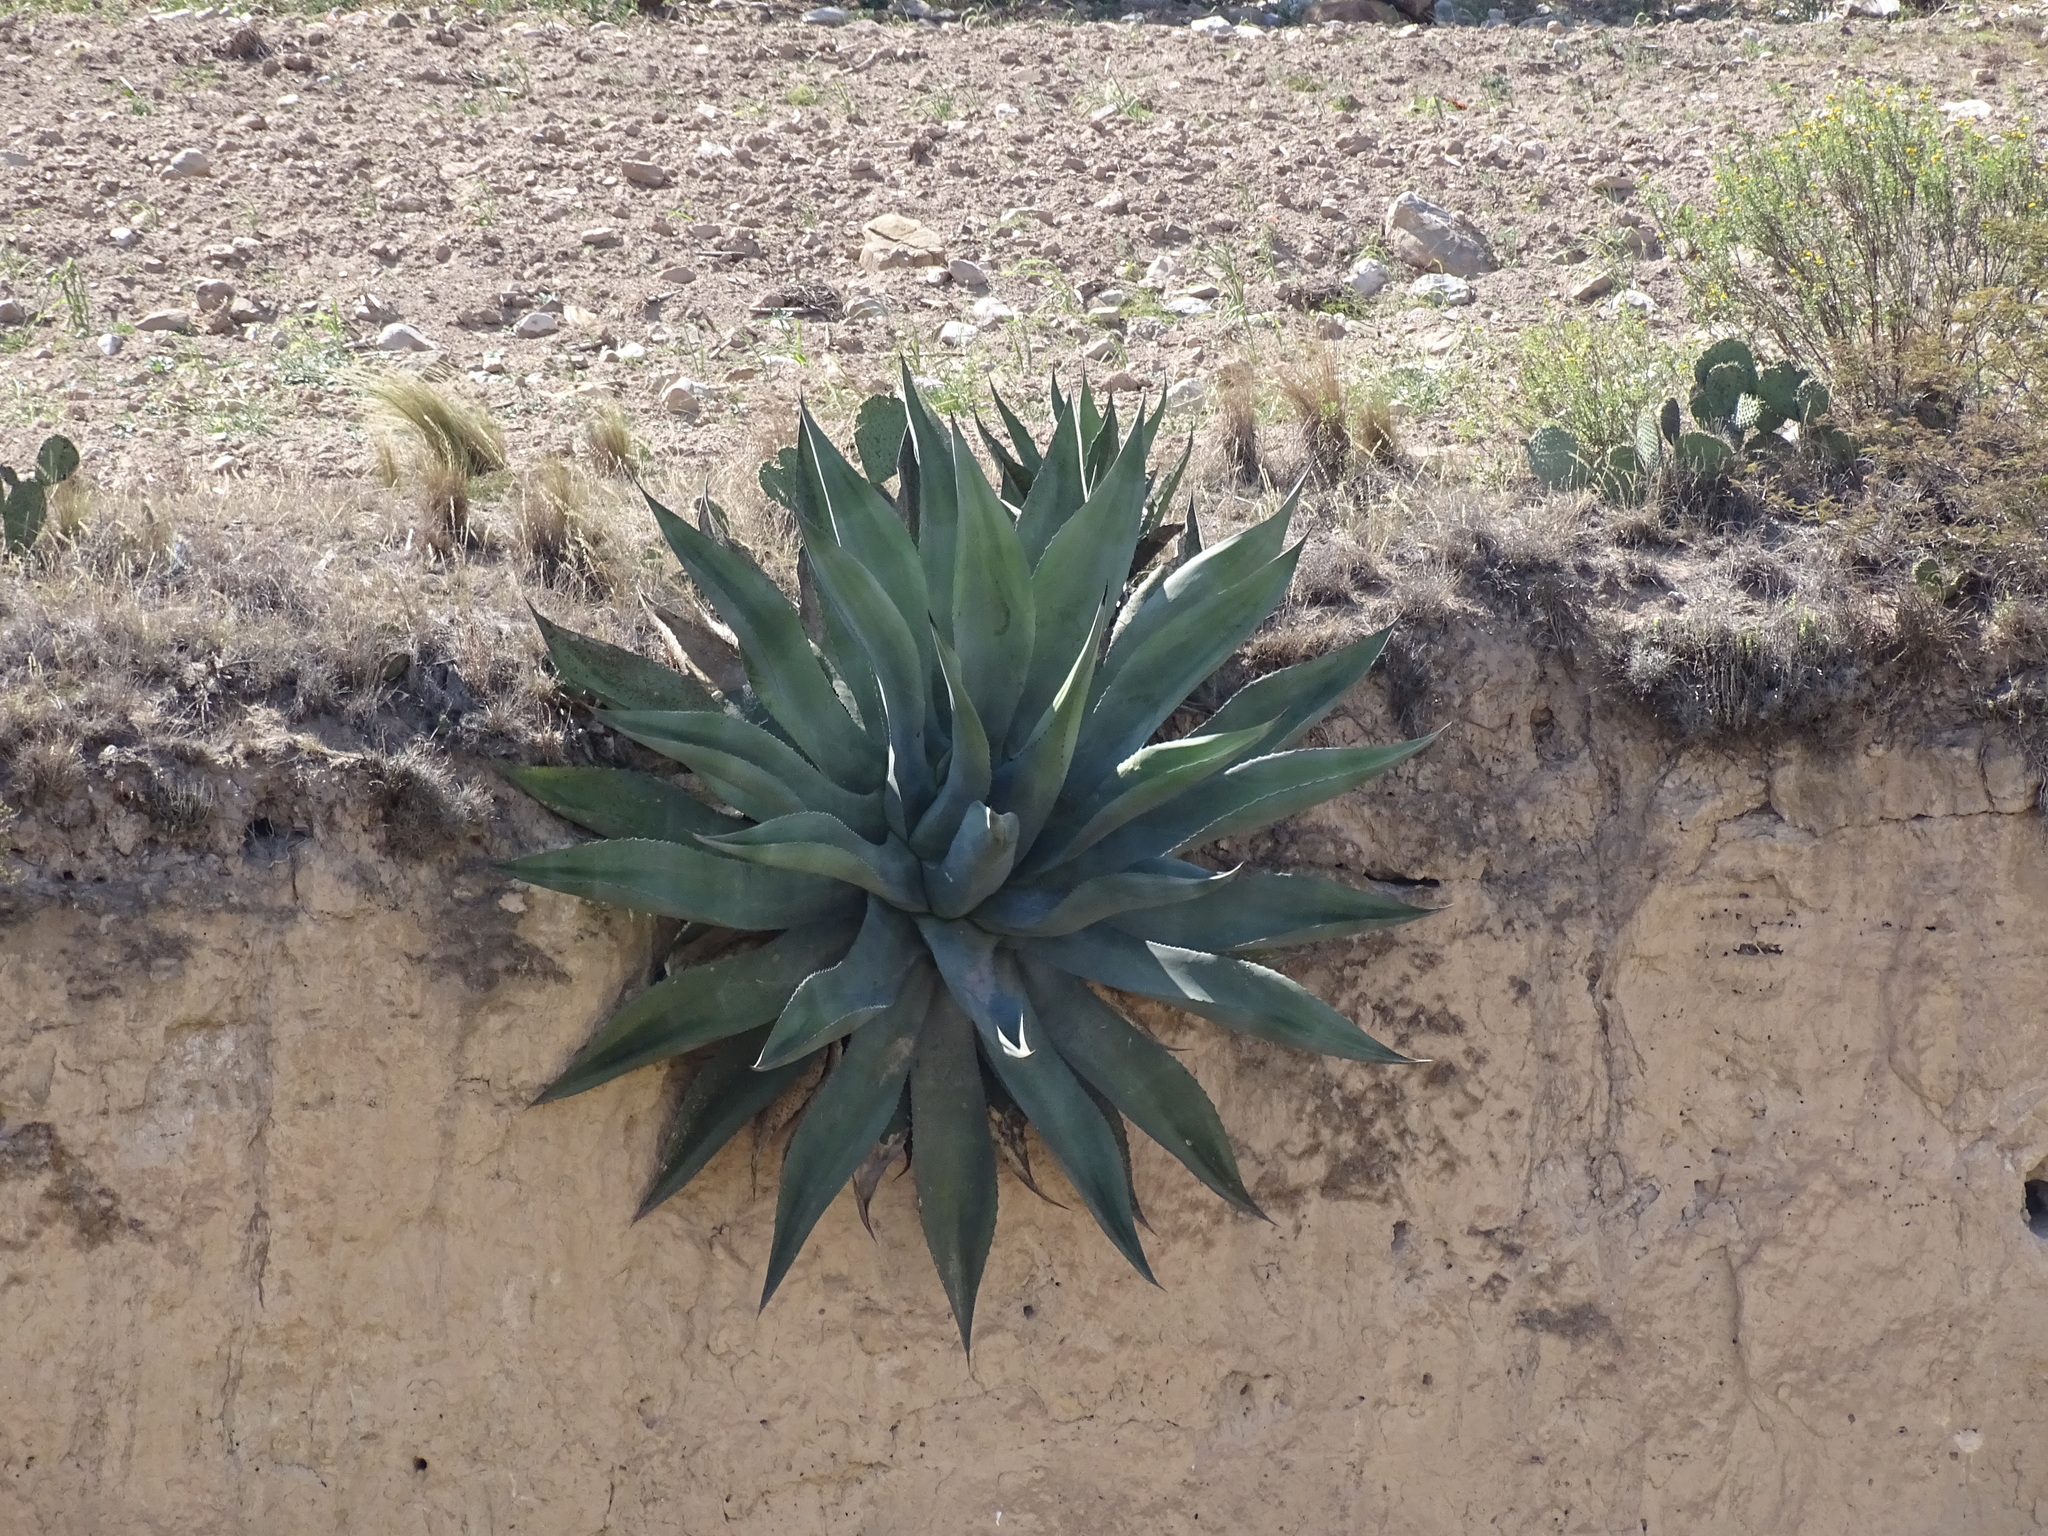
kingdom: Plantae
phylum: Tracheophyta
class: Liliopsida
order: Asparagales
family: Asparagaceae
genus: Agave
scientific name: Agave salmiana
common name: Pulque agave
